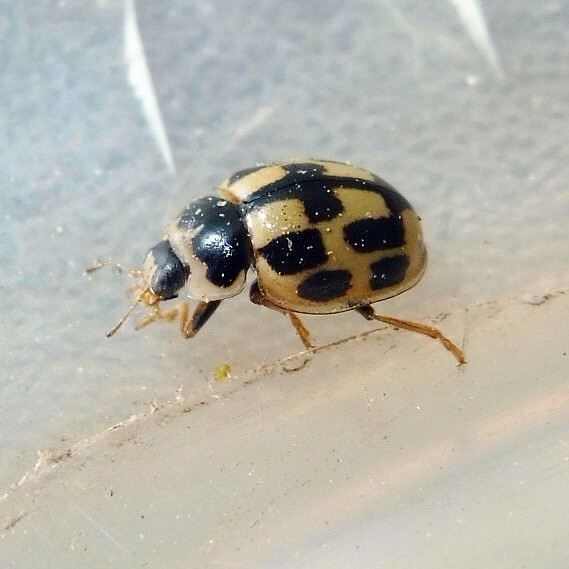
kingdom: Animalia
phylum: Arthropoda
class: Insecta
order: Coleoptera
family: Coccinellidae
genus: Propylaea
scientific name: Propylaea quatuordecimpunctata
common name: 14-spotted ladybird beetle
